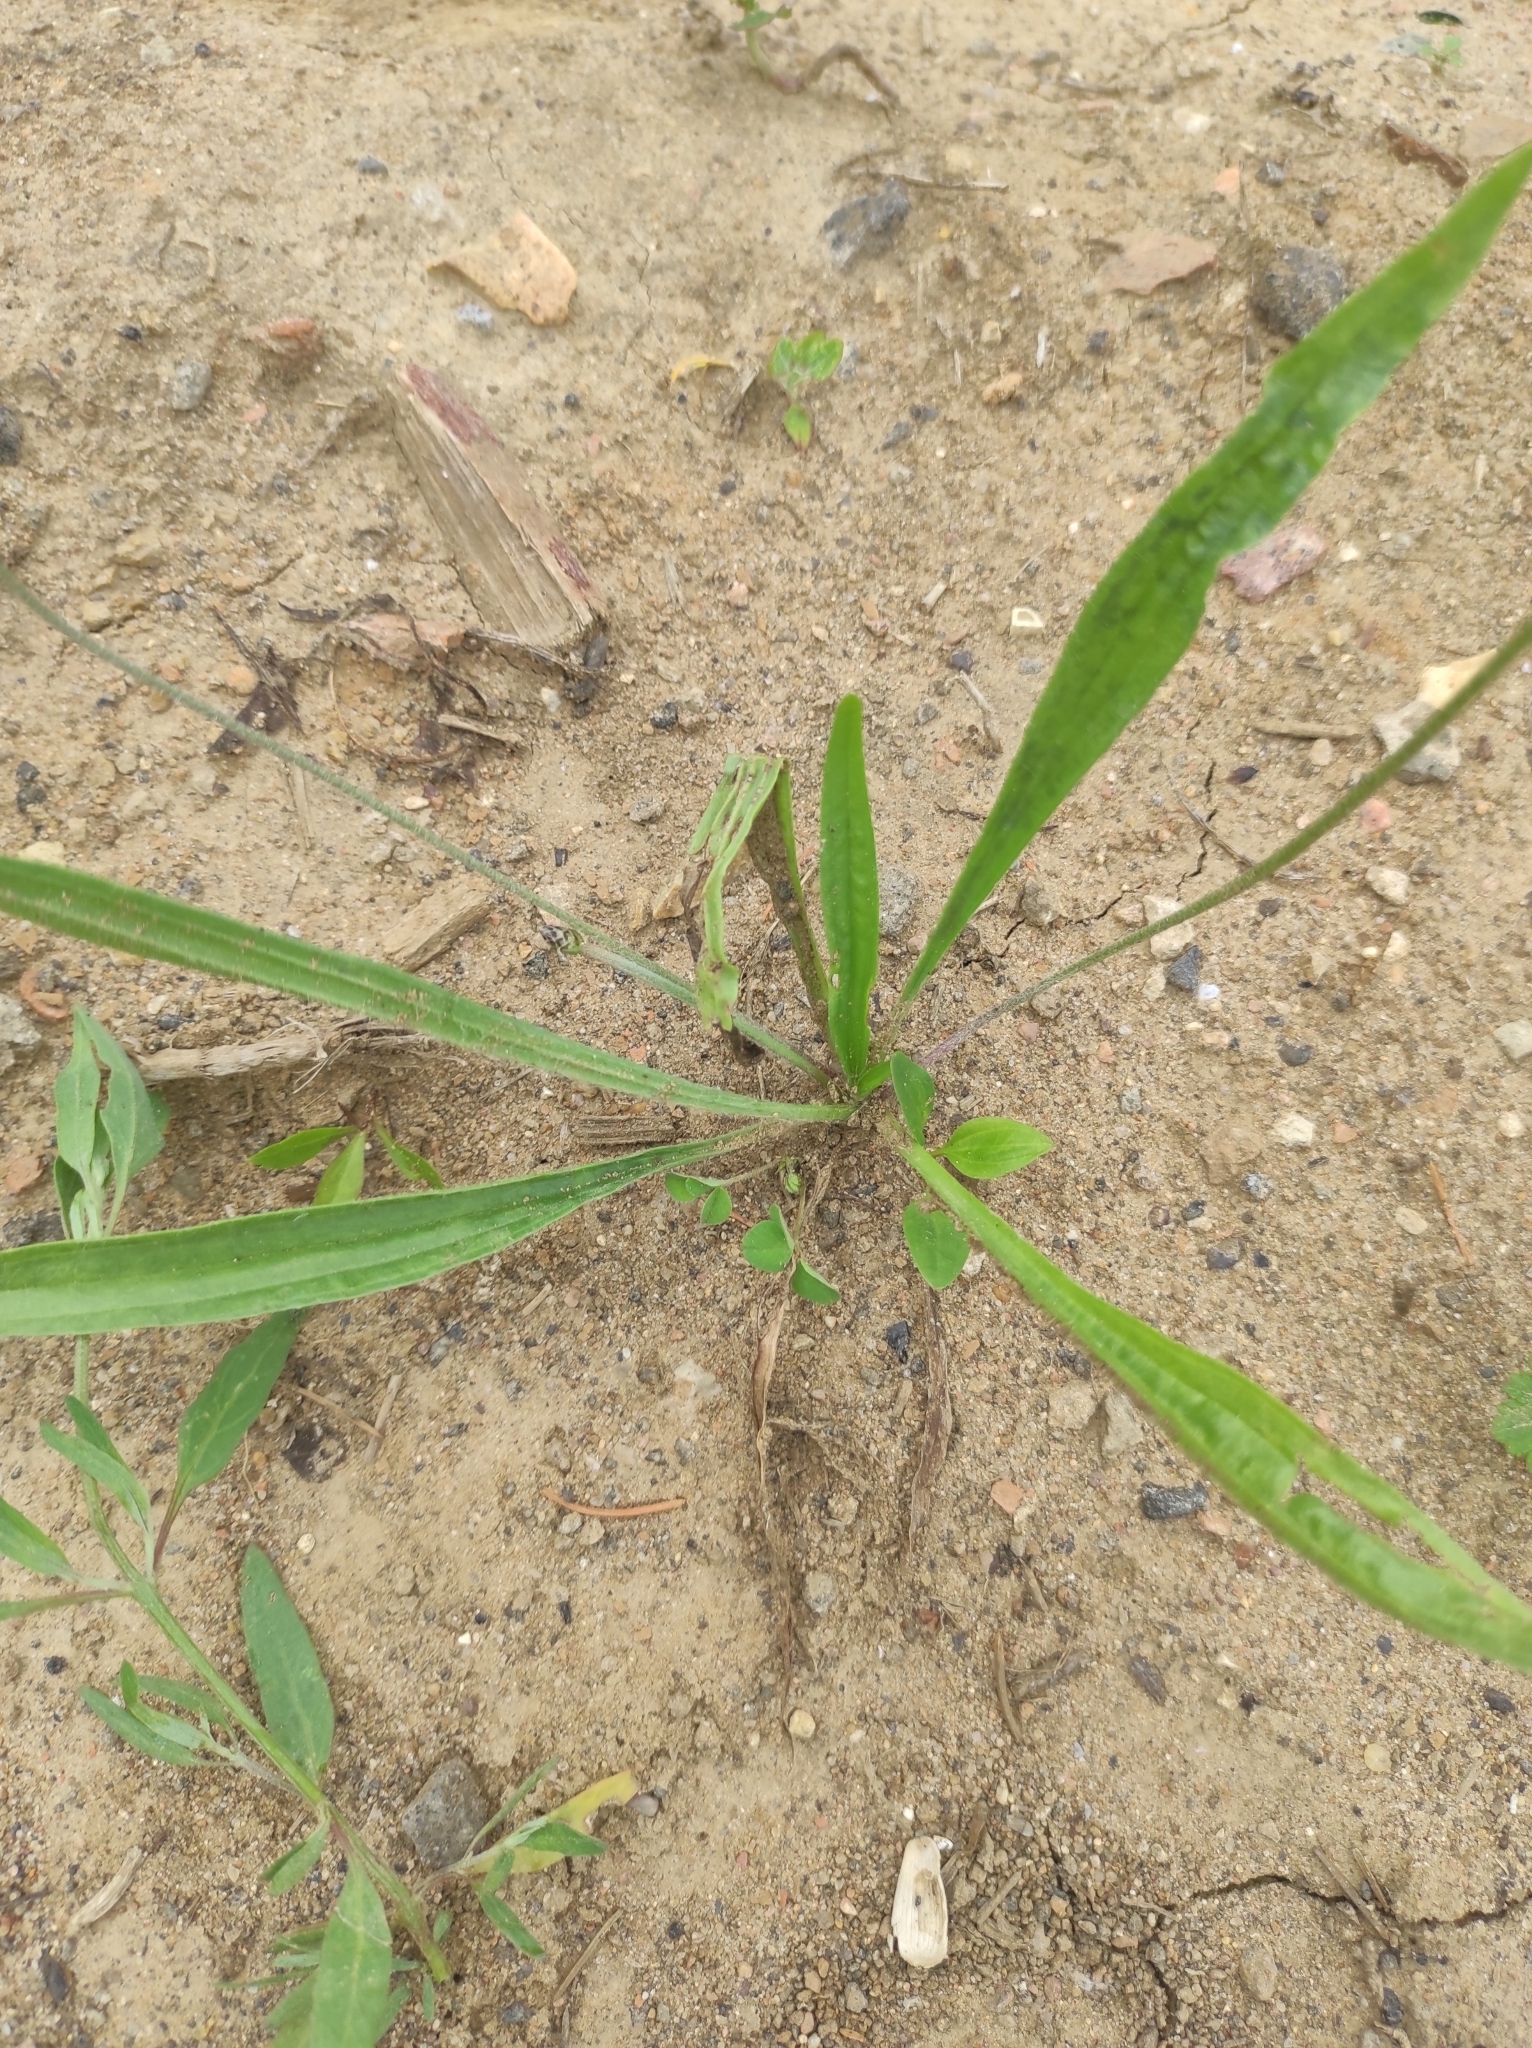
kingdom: Plantae
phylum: Tracheophyta
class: Magnoliopsida
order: Lamiales
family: Plantaginaceae
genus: Plantago
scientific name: Plantago lanceolata
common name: Ribwort plantain
